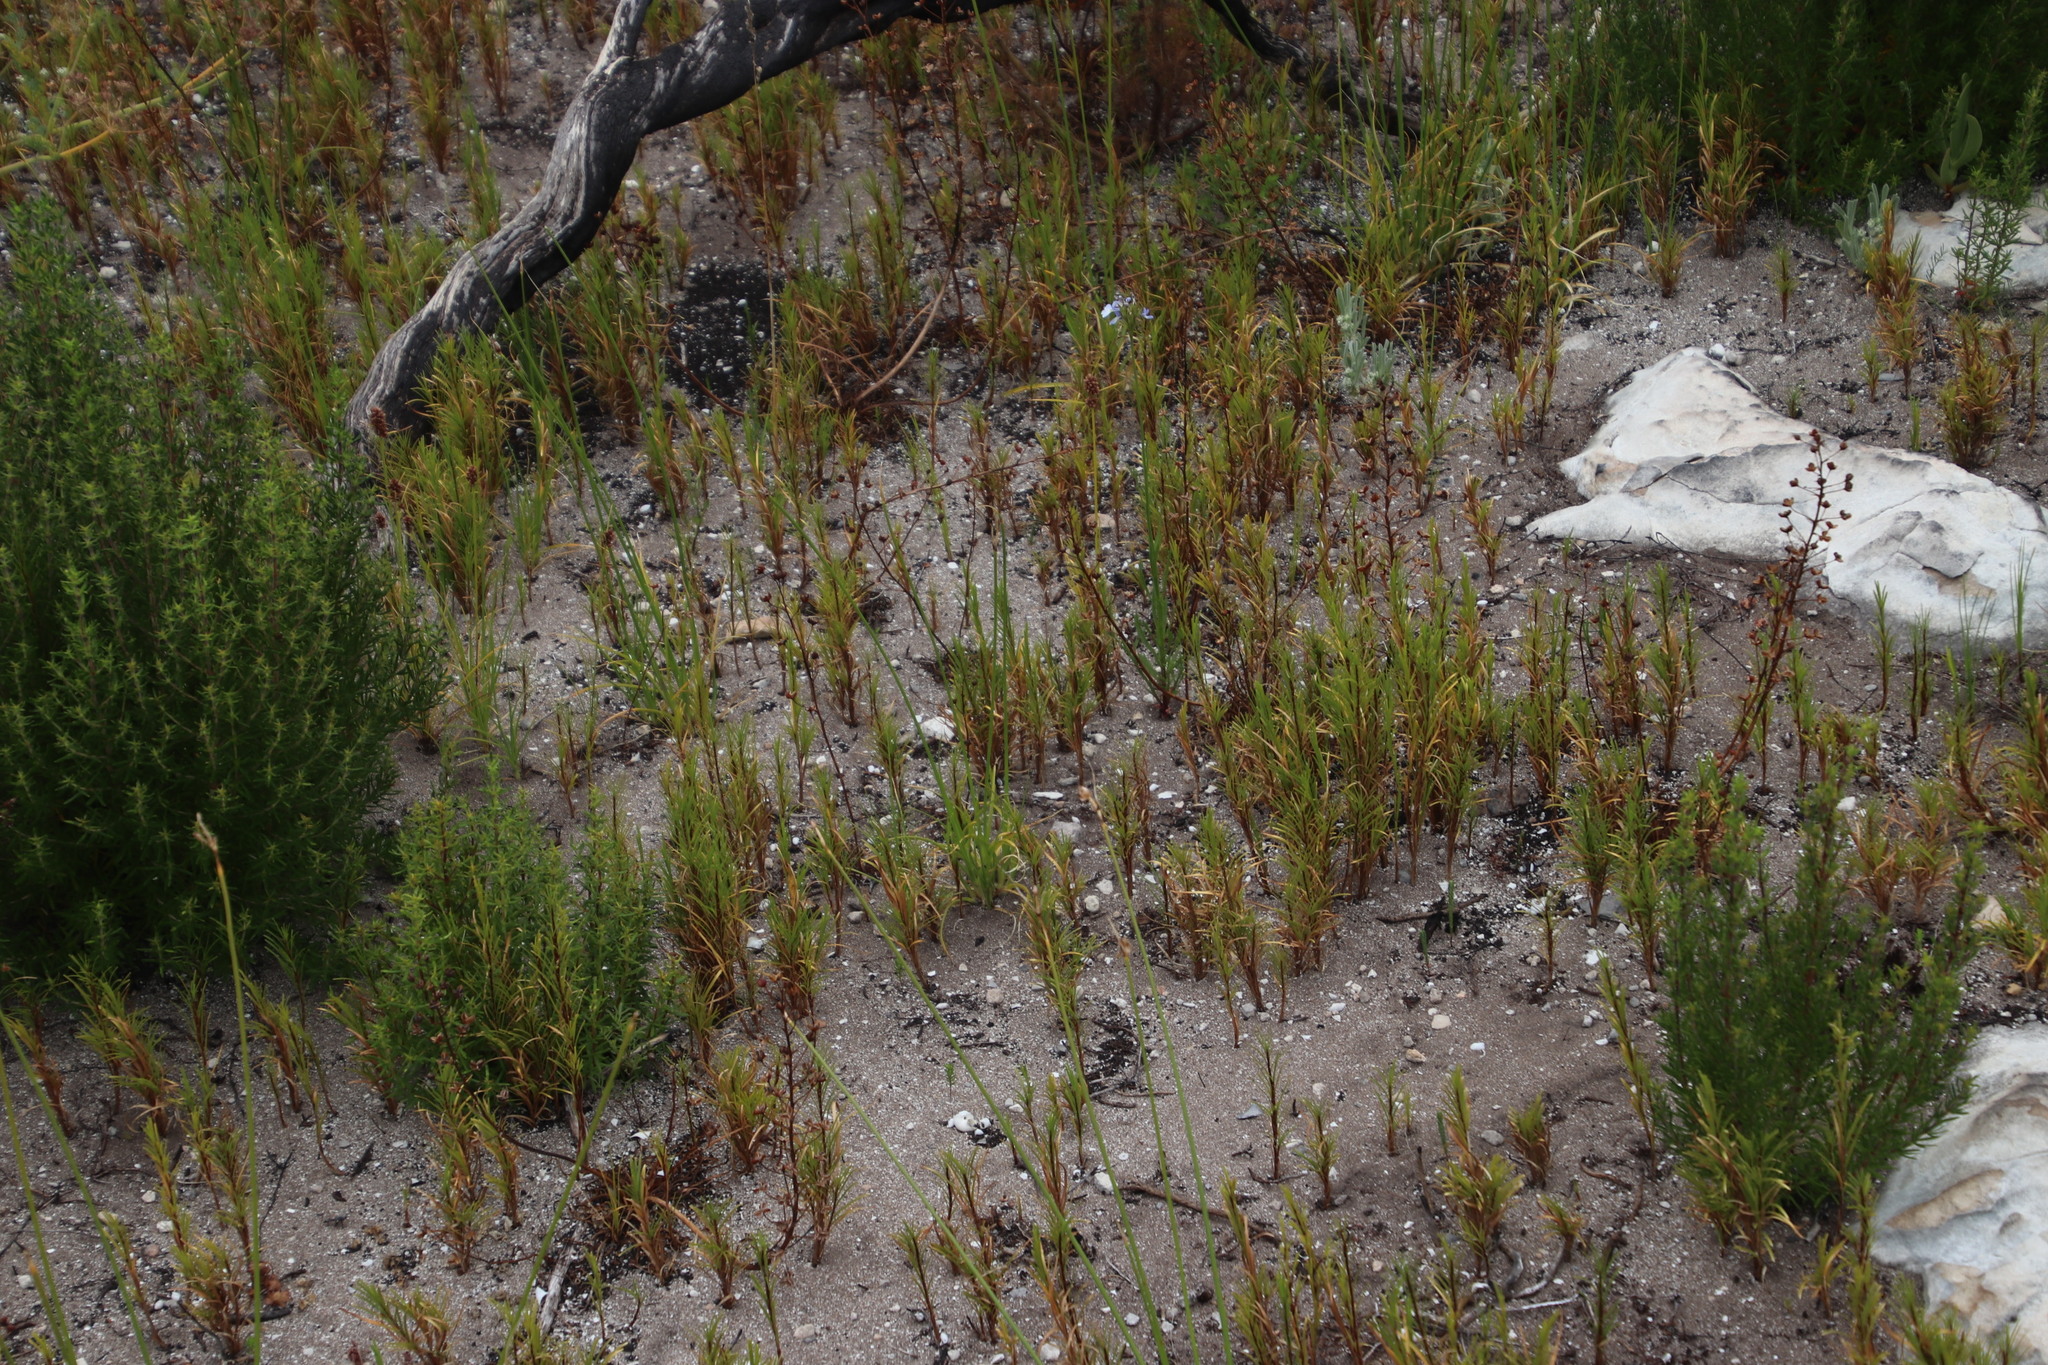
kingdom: Plantae
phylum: Tracheophyta
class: Liliopsida
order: Poales
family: Cyperaceae
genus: Ficinia
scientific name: Ficinia ramosissima
